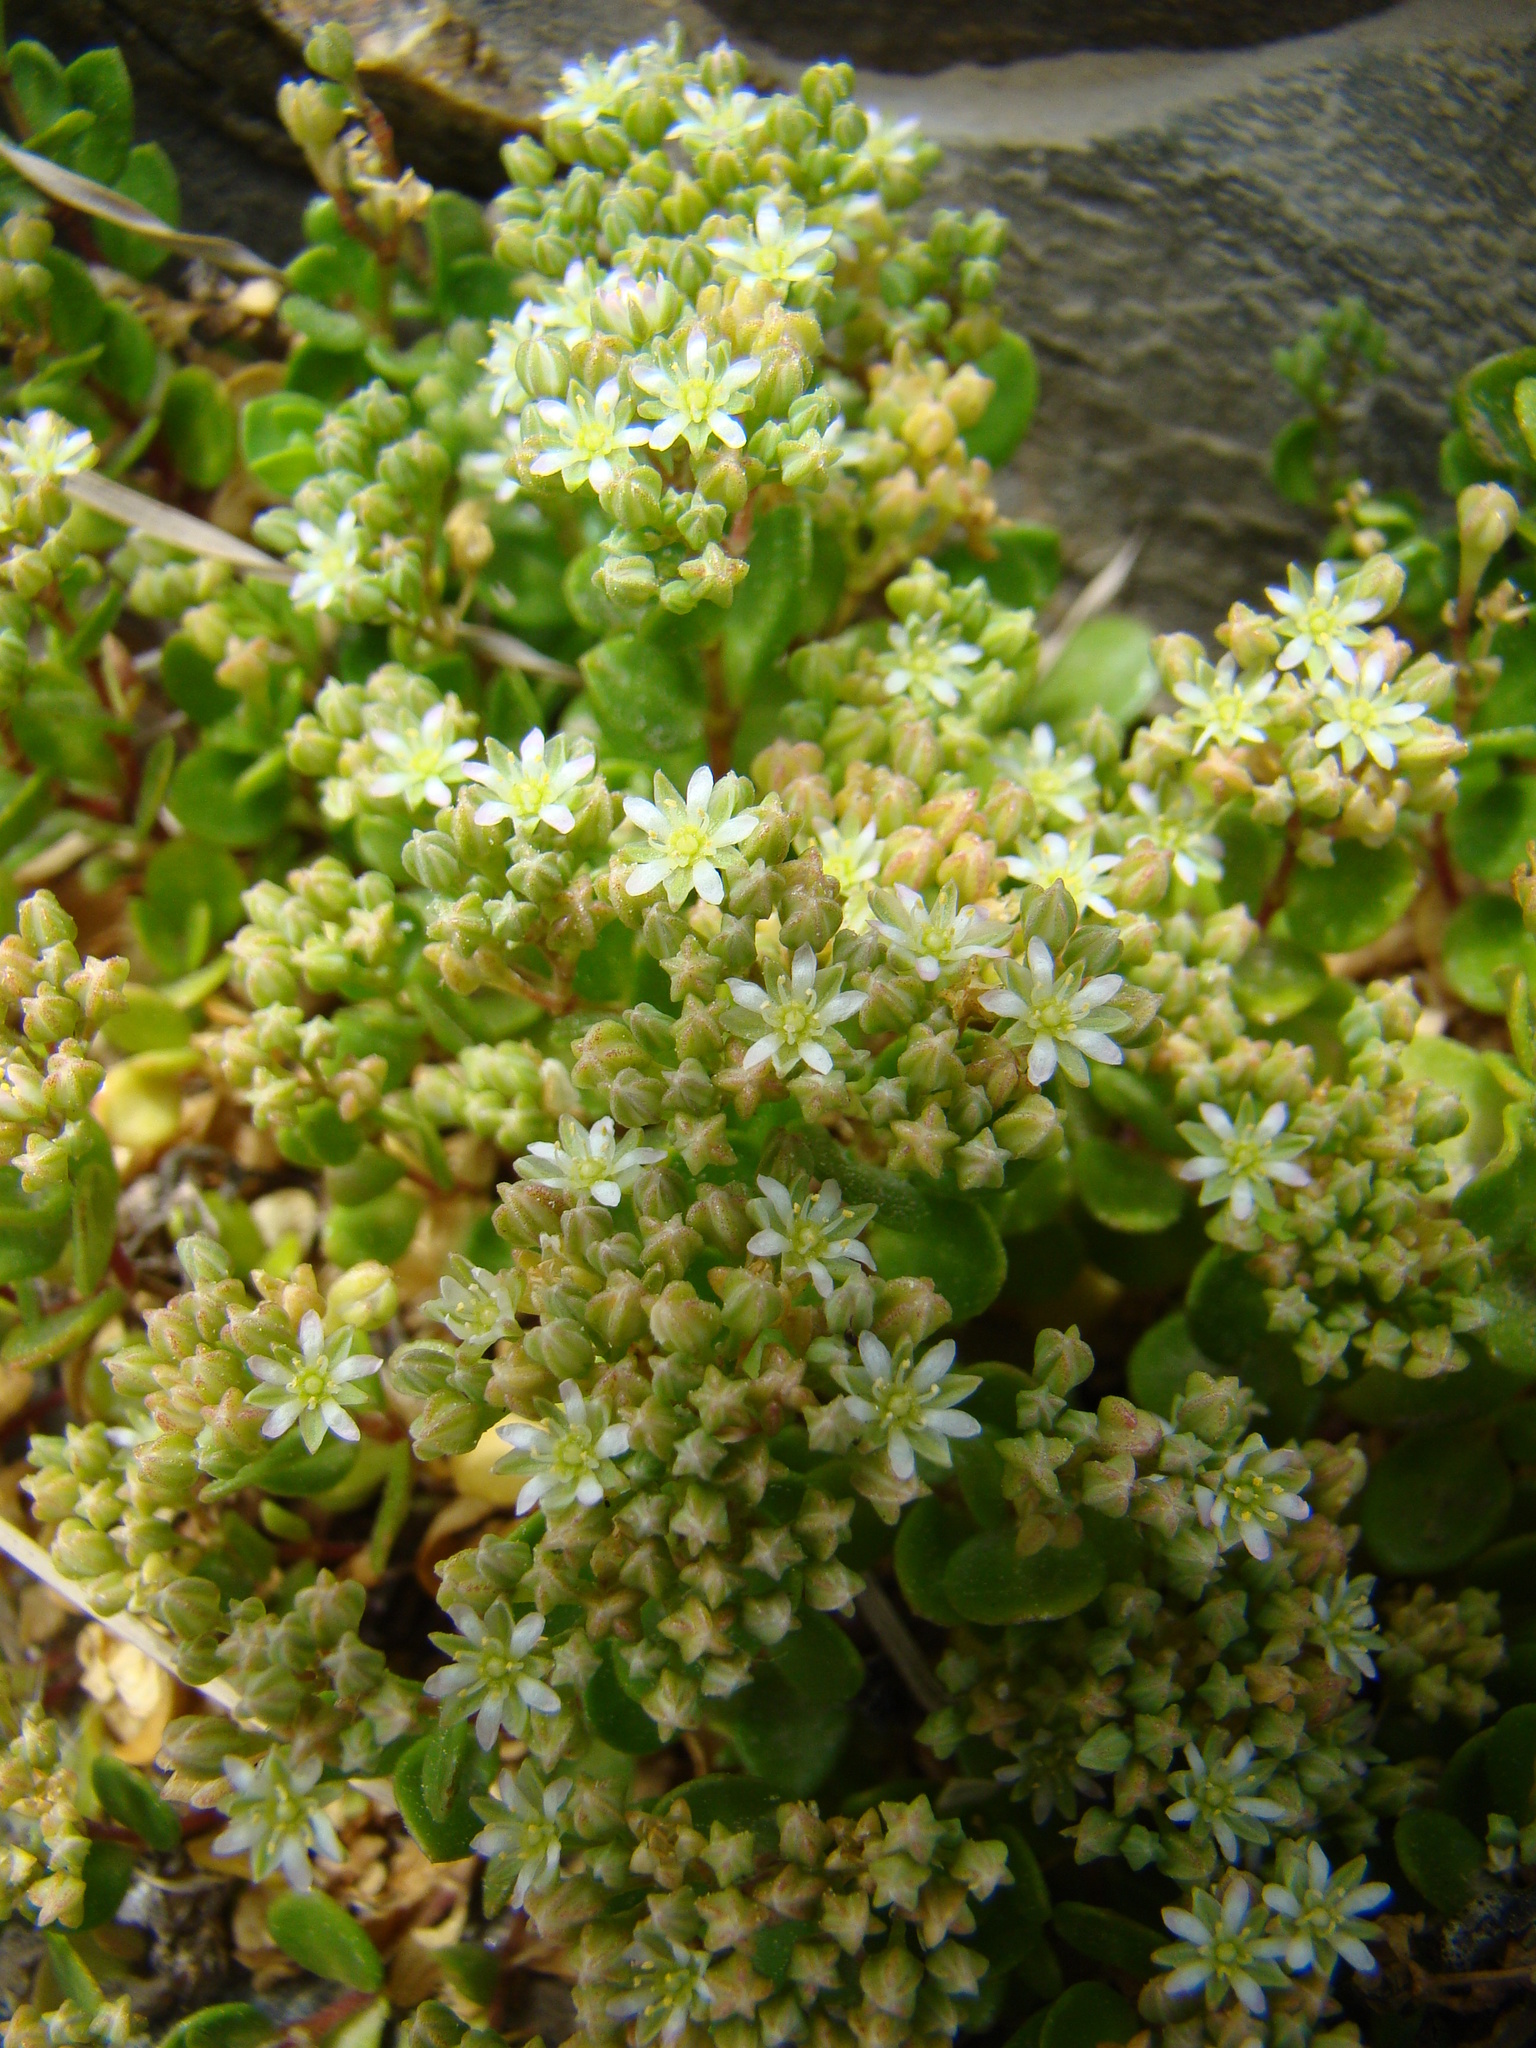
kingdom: Plantae
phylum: Tracheophyta
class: Magnoliopsida
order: Caryophyllales
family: Caryophyllaceae
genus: Polycarpon
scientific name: Polycarpon polycarpoides
